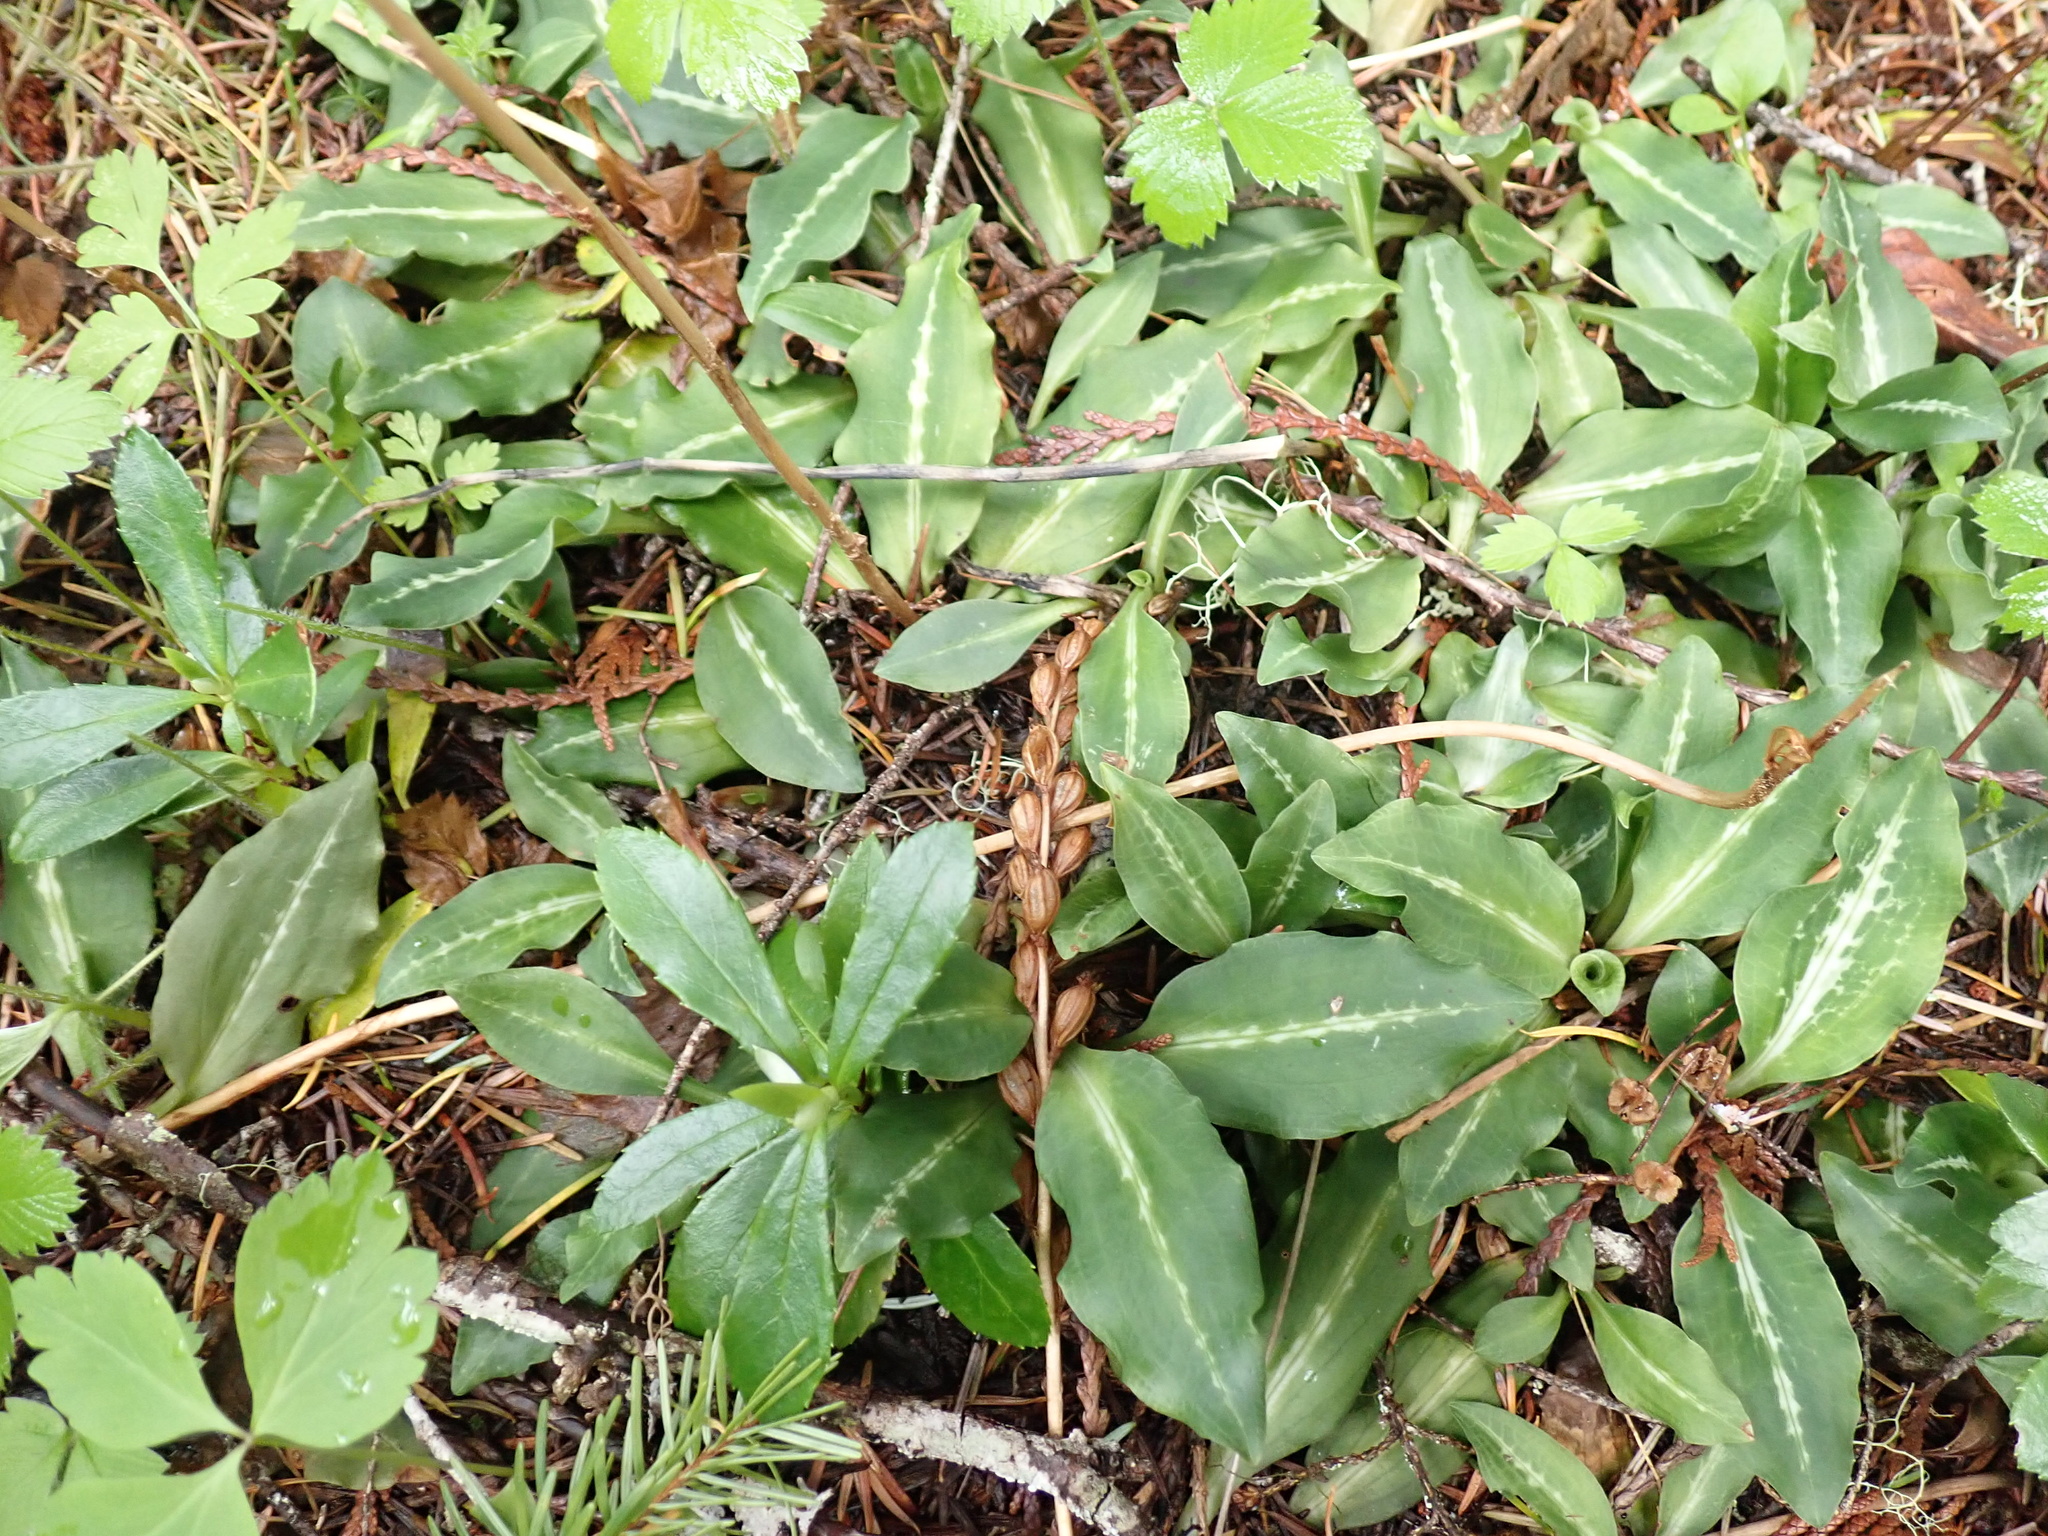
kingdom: Plantae
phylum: Tracheophyta
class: Liliopsida
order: Asparagales
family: Orchidaceae
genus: Goodyera
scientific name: Goodyera oblongifolia
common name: Giant rattlesnake-plantain
